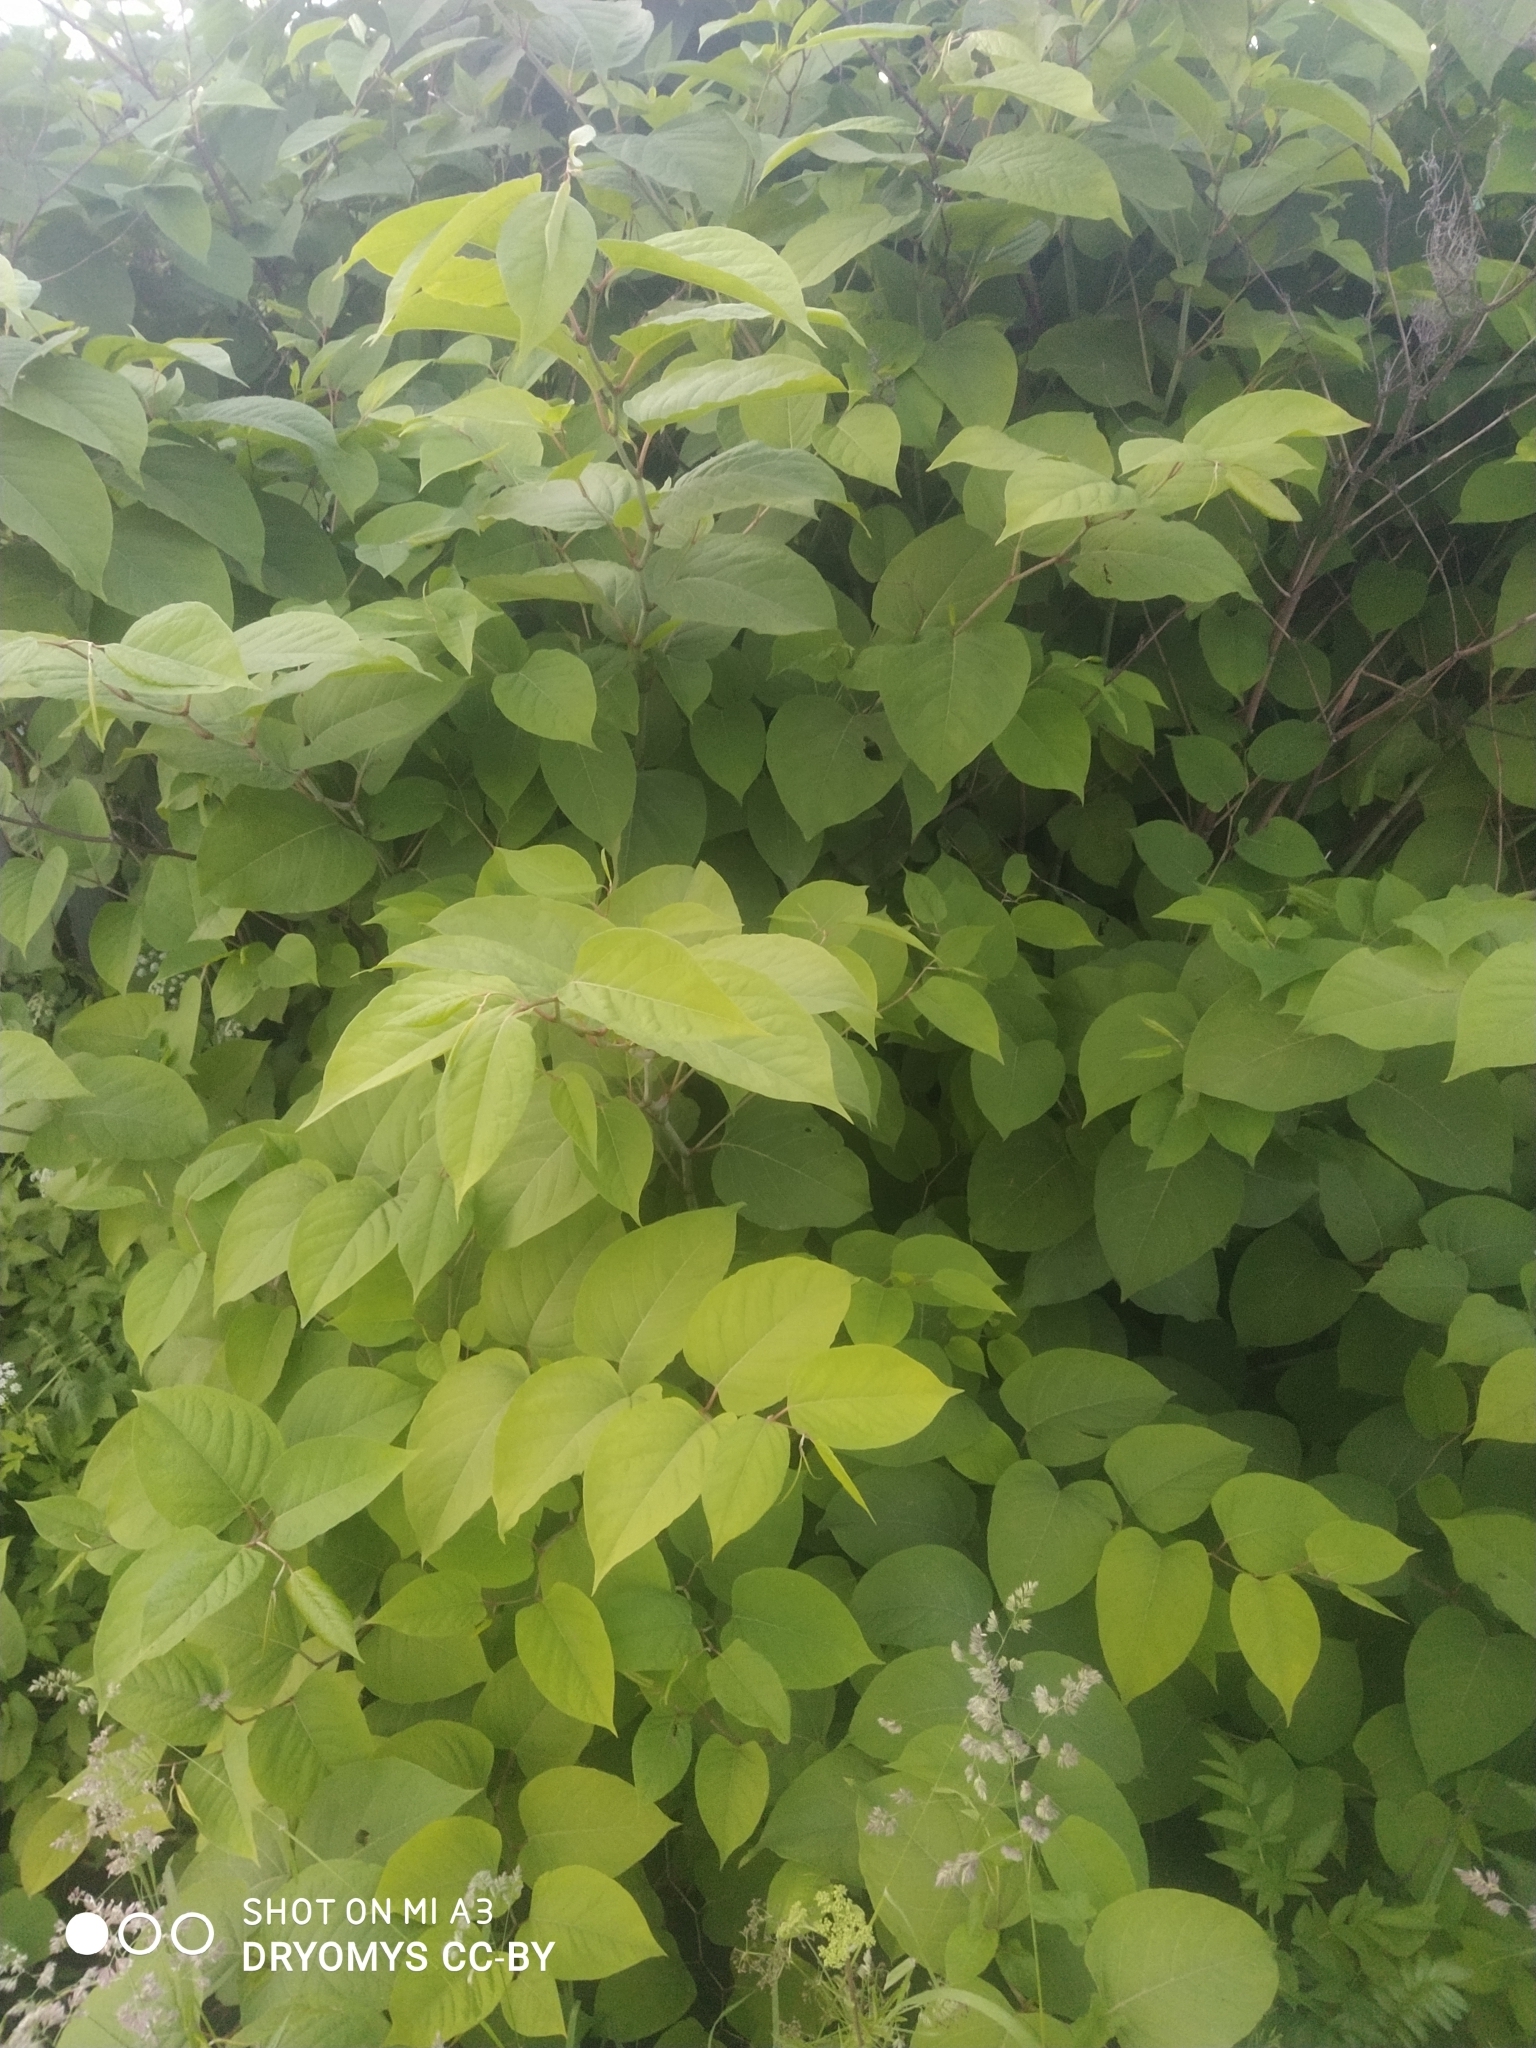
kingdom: Plantae
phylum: Tracheophyta
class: Magnoliopsida
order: Caryophyllales
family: Polygonaceae
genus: Reynoutria
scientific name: Reynoutria bohemica
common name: Bohemian knotweed
